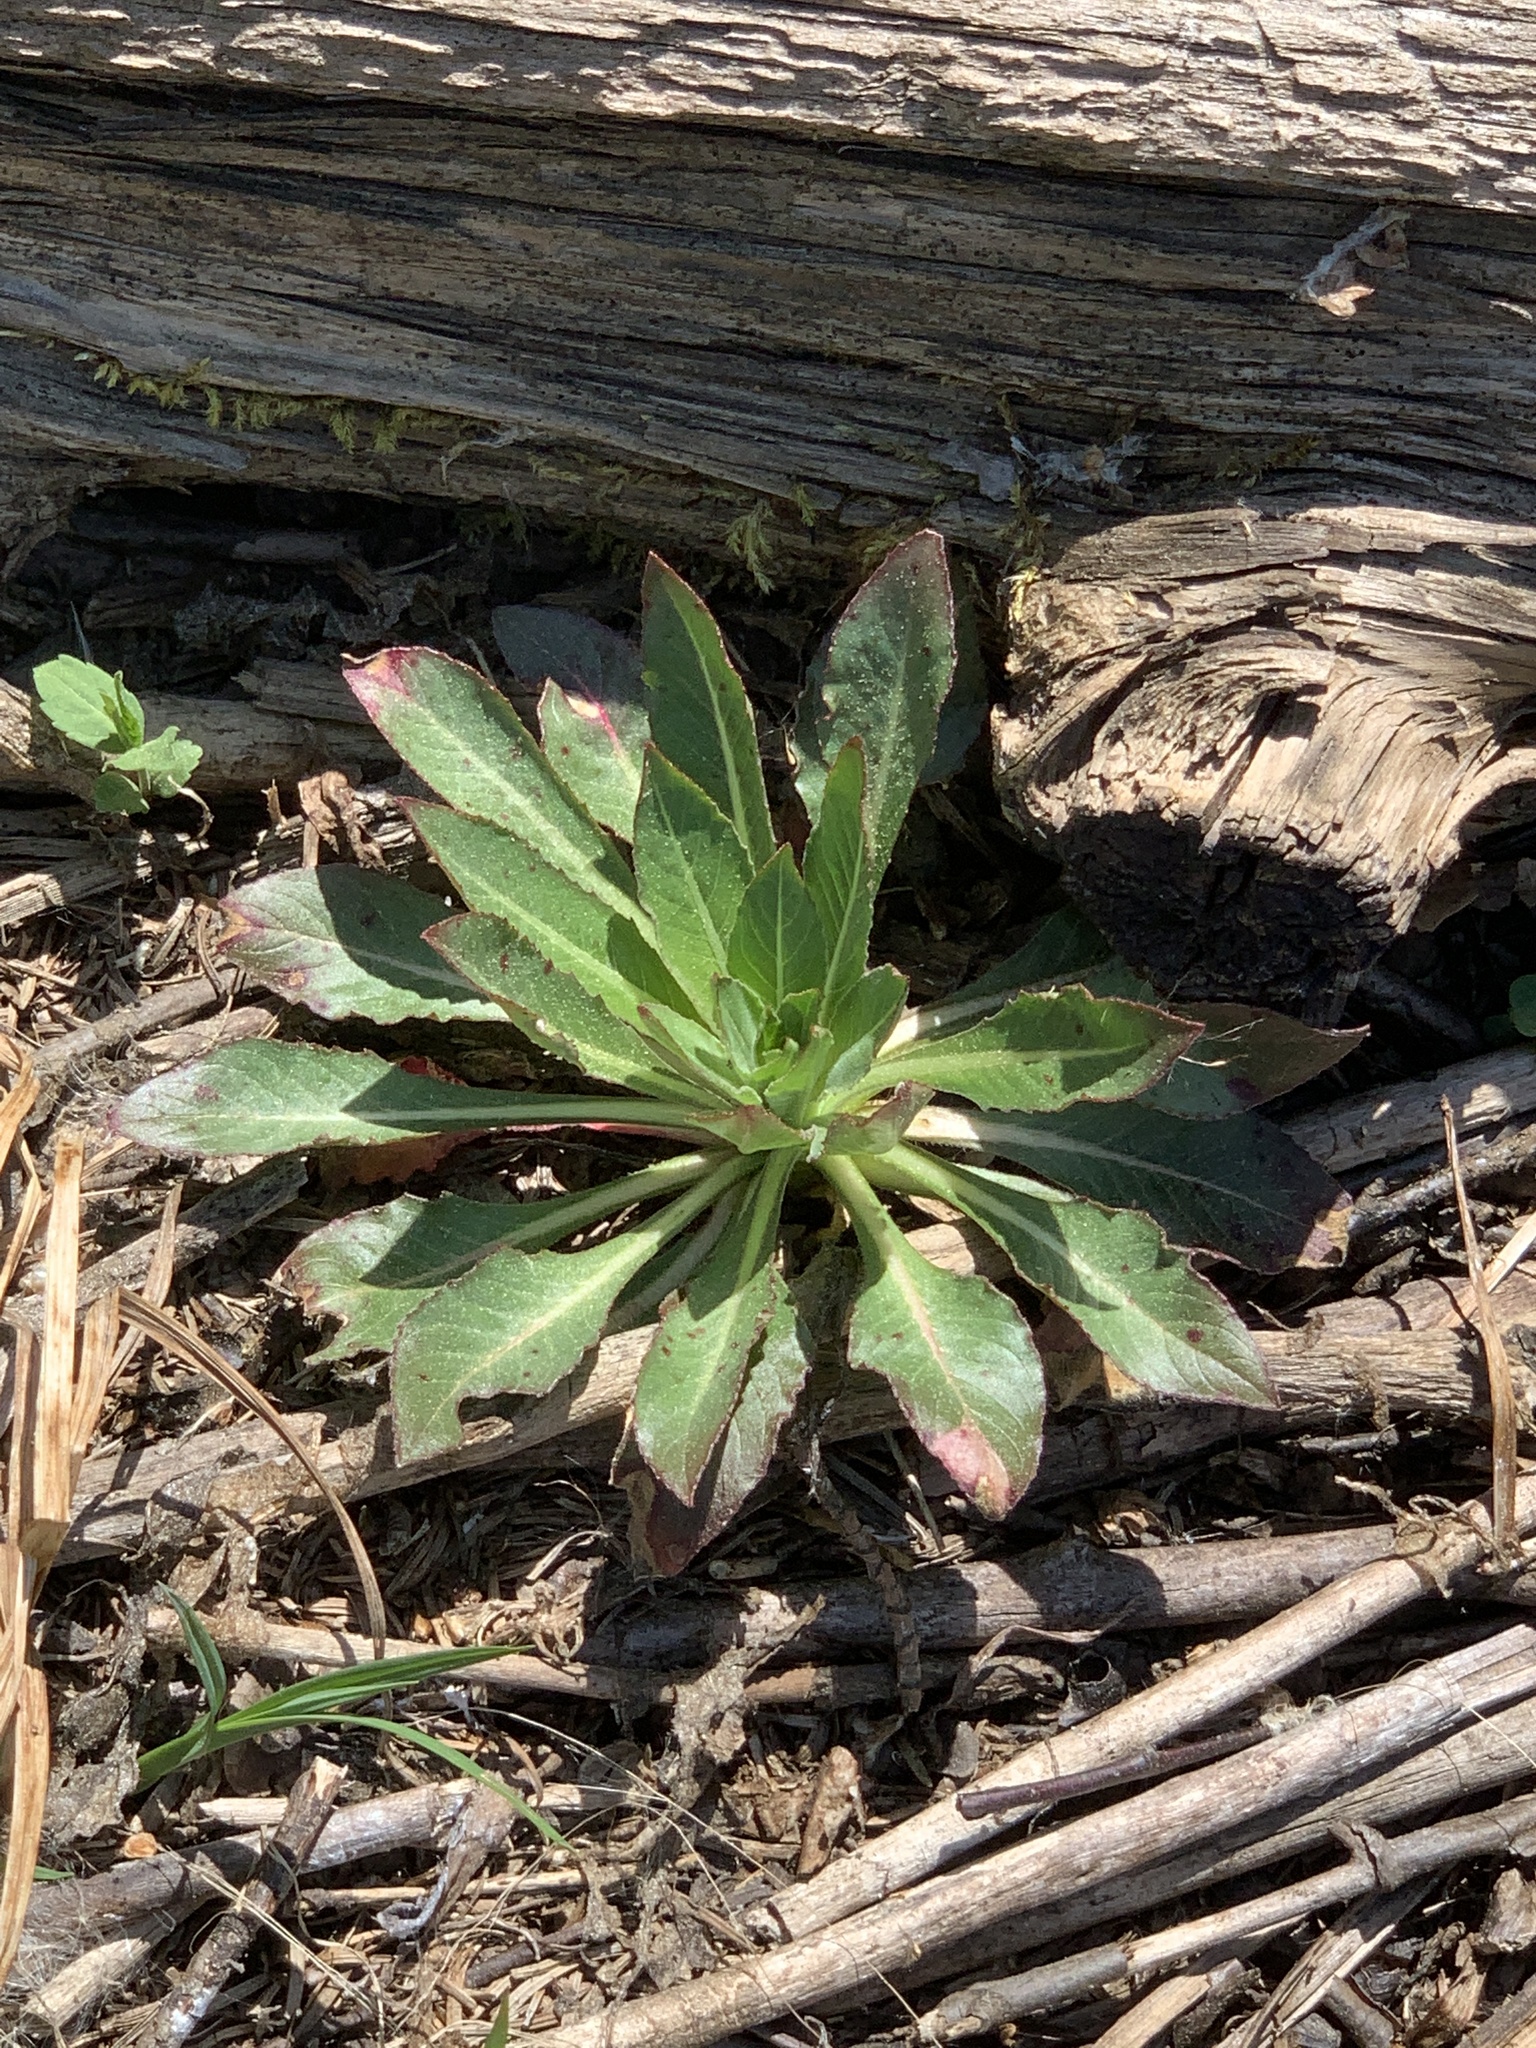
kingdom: Plantae
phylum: Tracheophyta
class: Magnoliopsida
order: Myrtales
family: Onagraceae
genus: Oenothera
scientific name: Oenothera biennis
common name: Common evening-primrose
